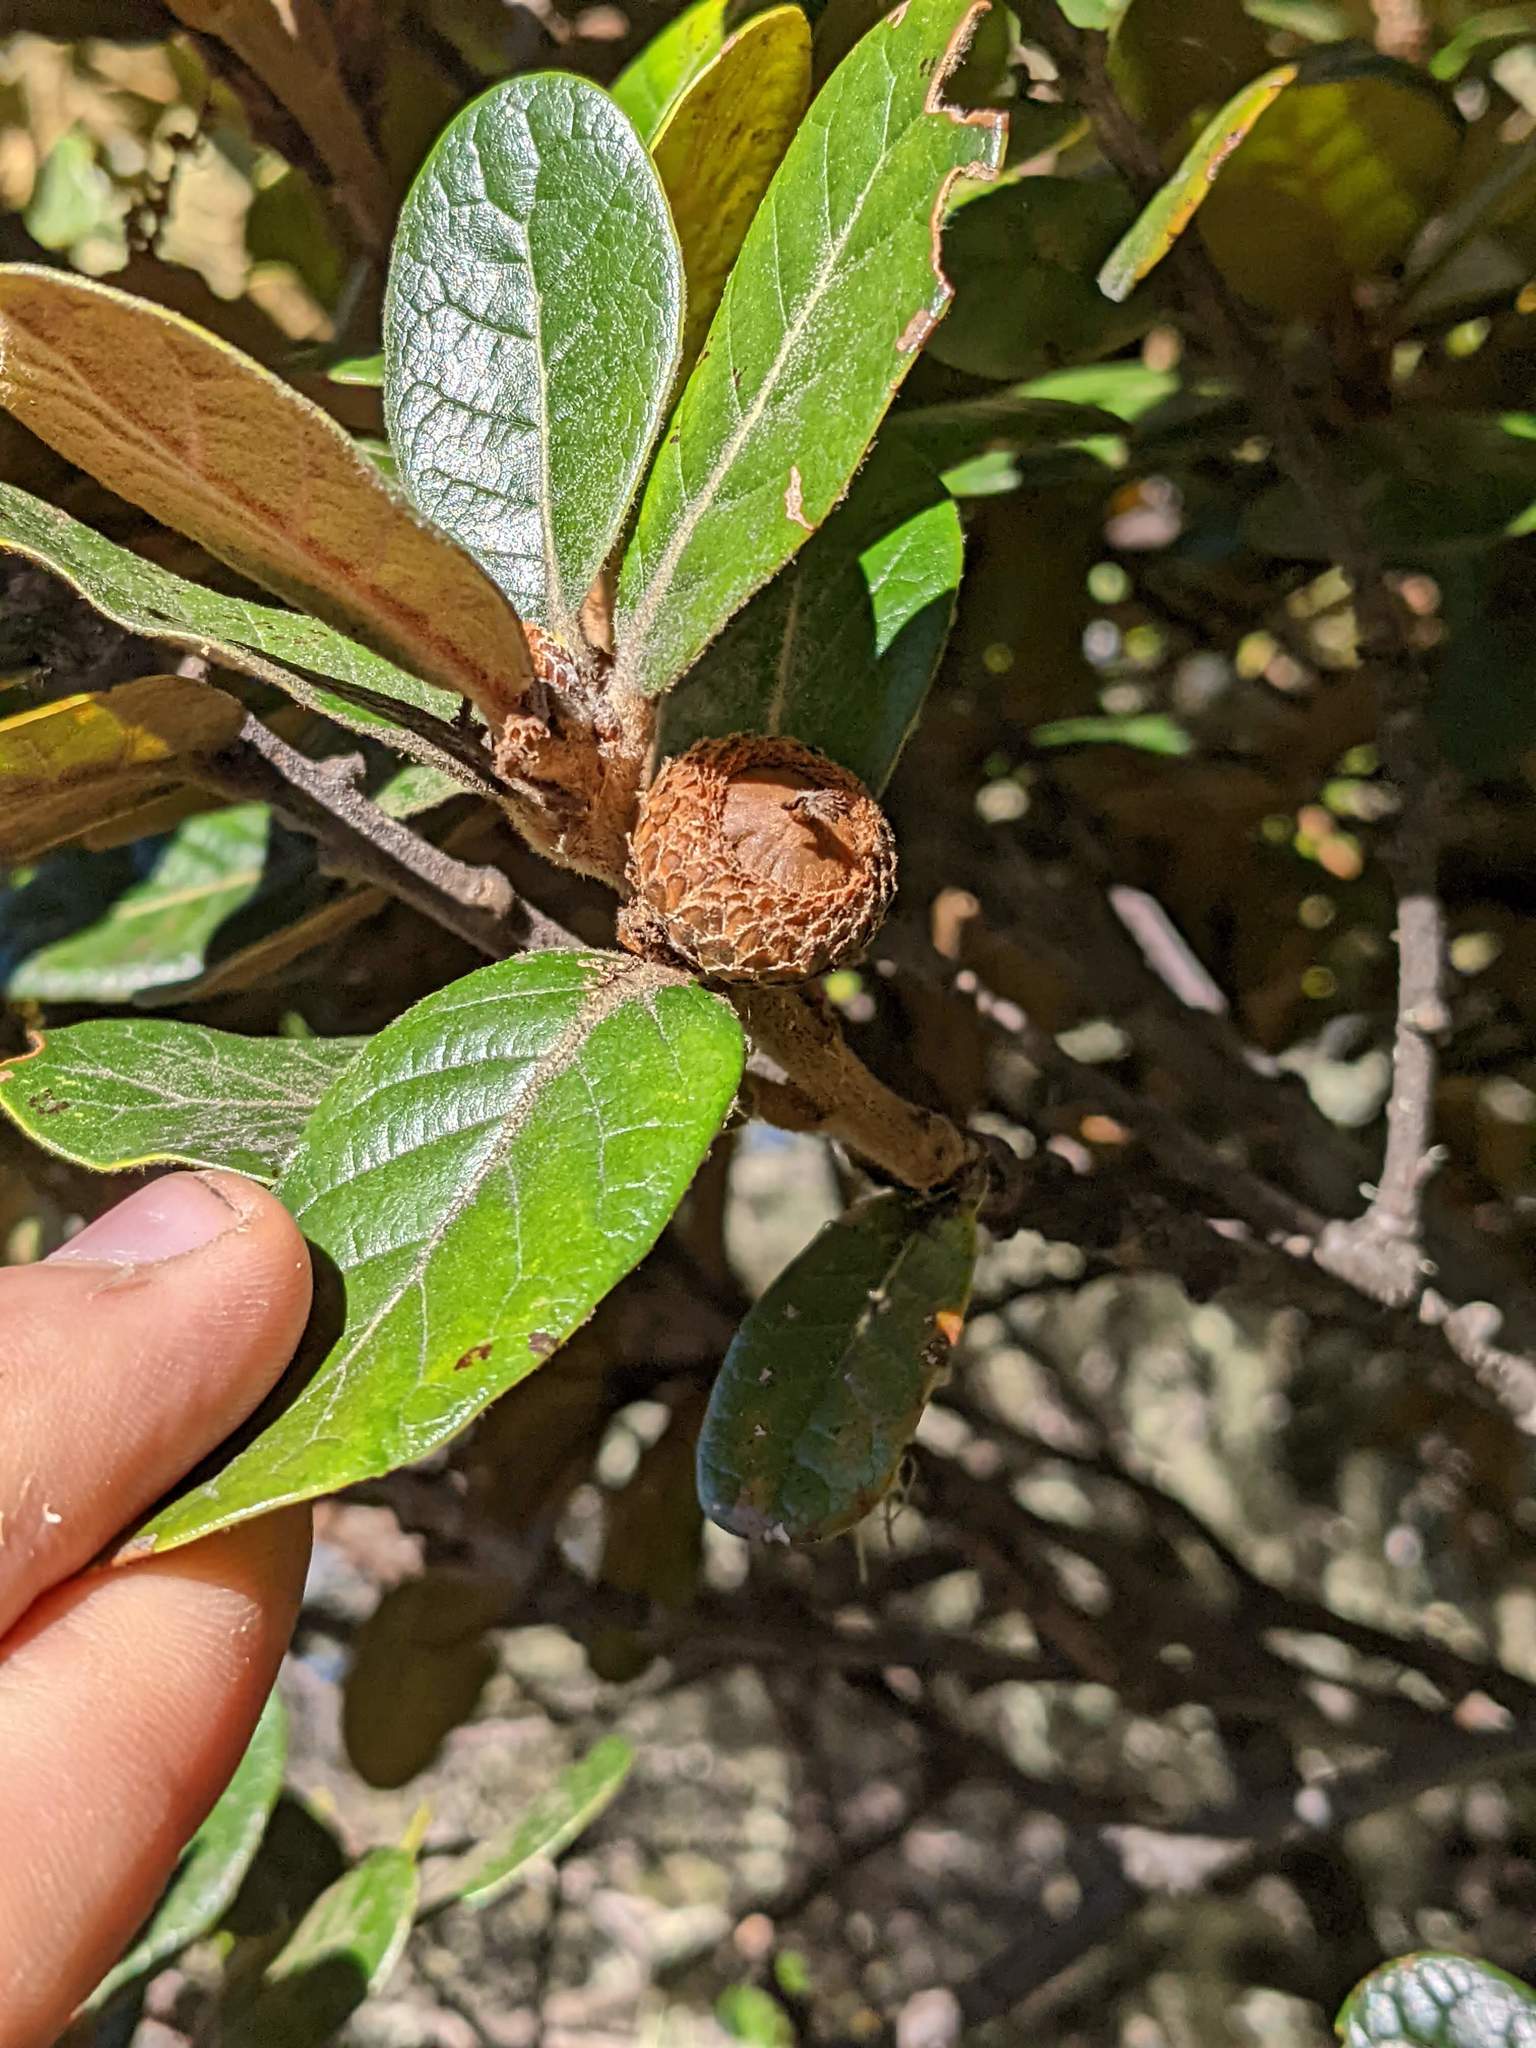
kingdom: Plantae
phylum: Tracheophyta
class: Magnoliopsida
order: Fagales
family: Fagaceae
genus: Quercus
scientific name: Quercus costaricensis
